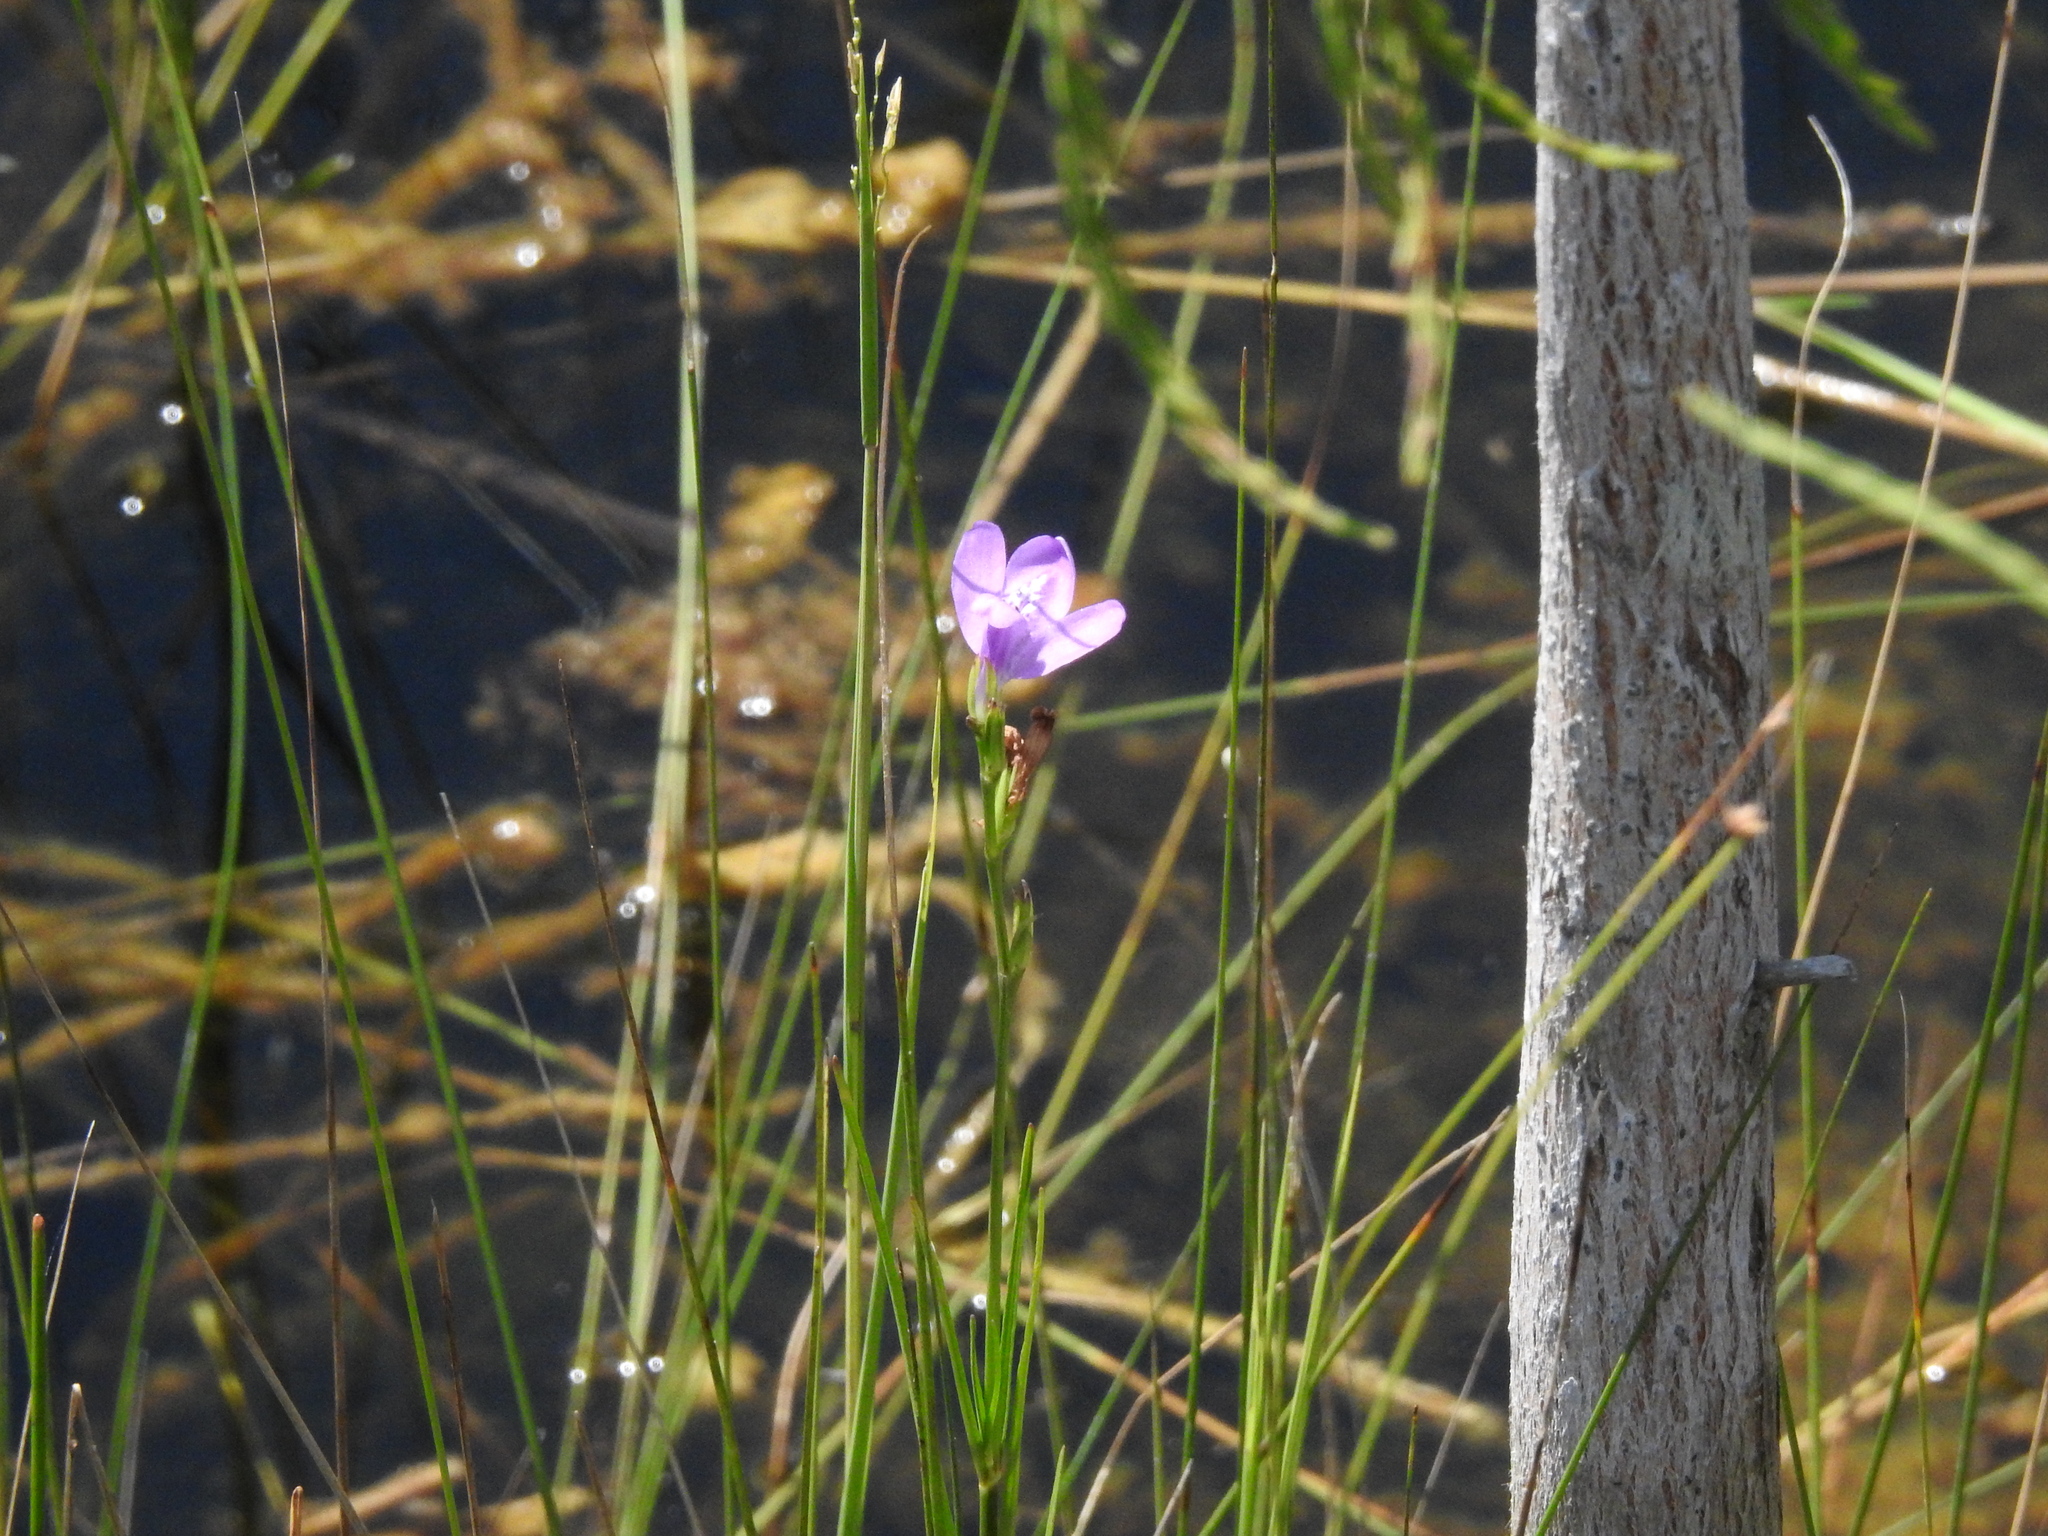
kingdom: Plantae
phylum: Tracheophyta
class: Magnoliopsida
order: Lamiales
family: Acanthaceae
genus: Dianthera
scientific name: Dianthera angusta
